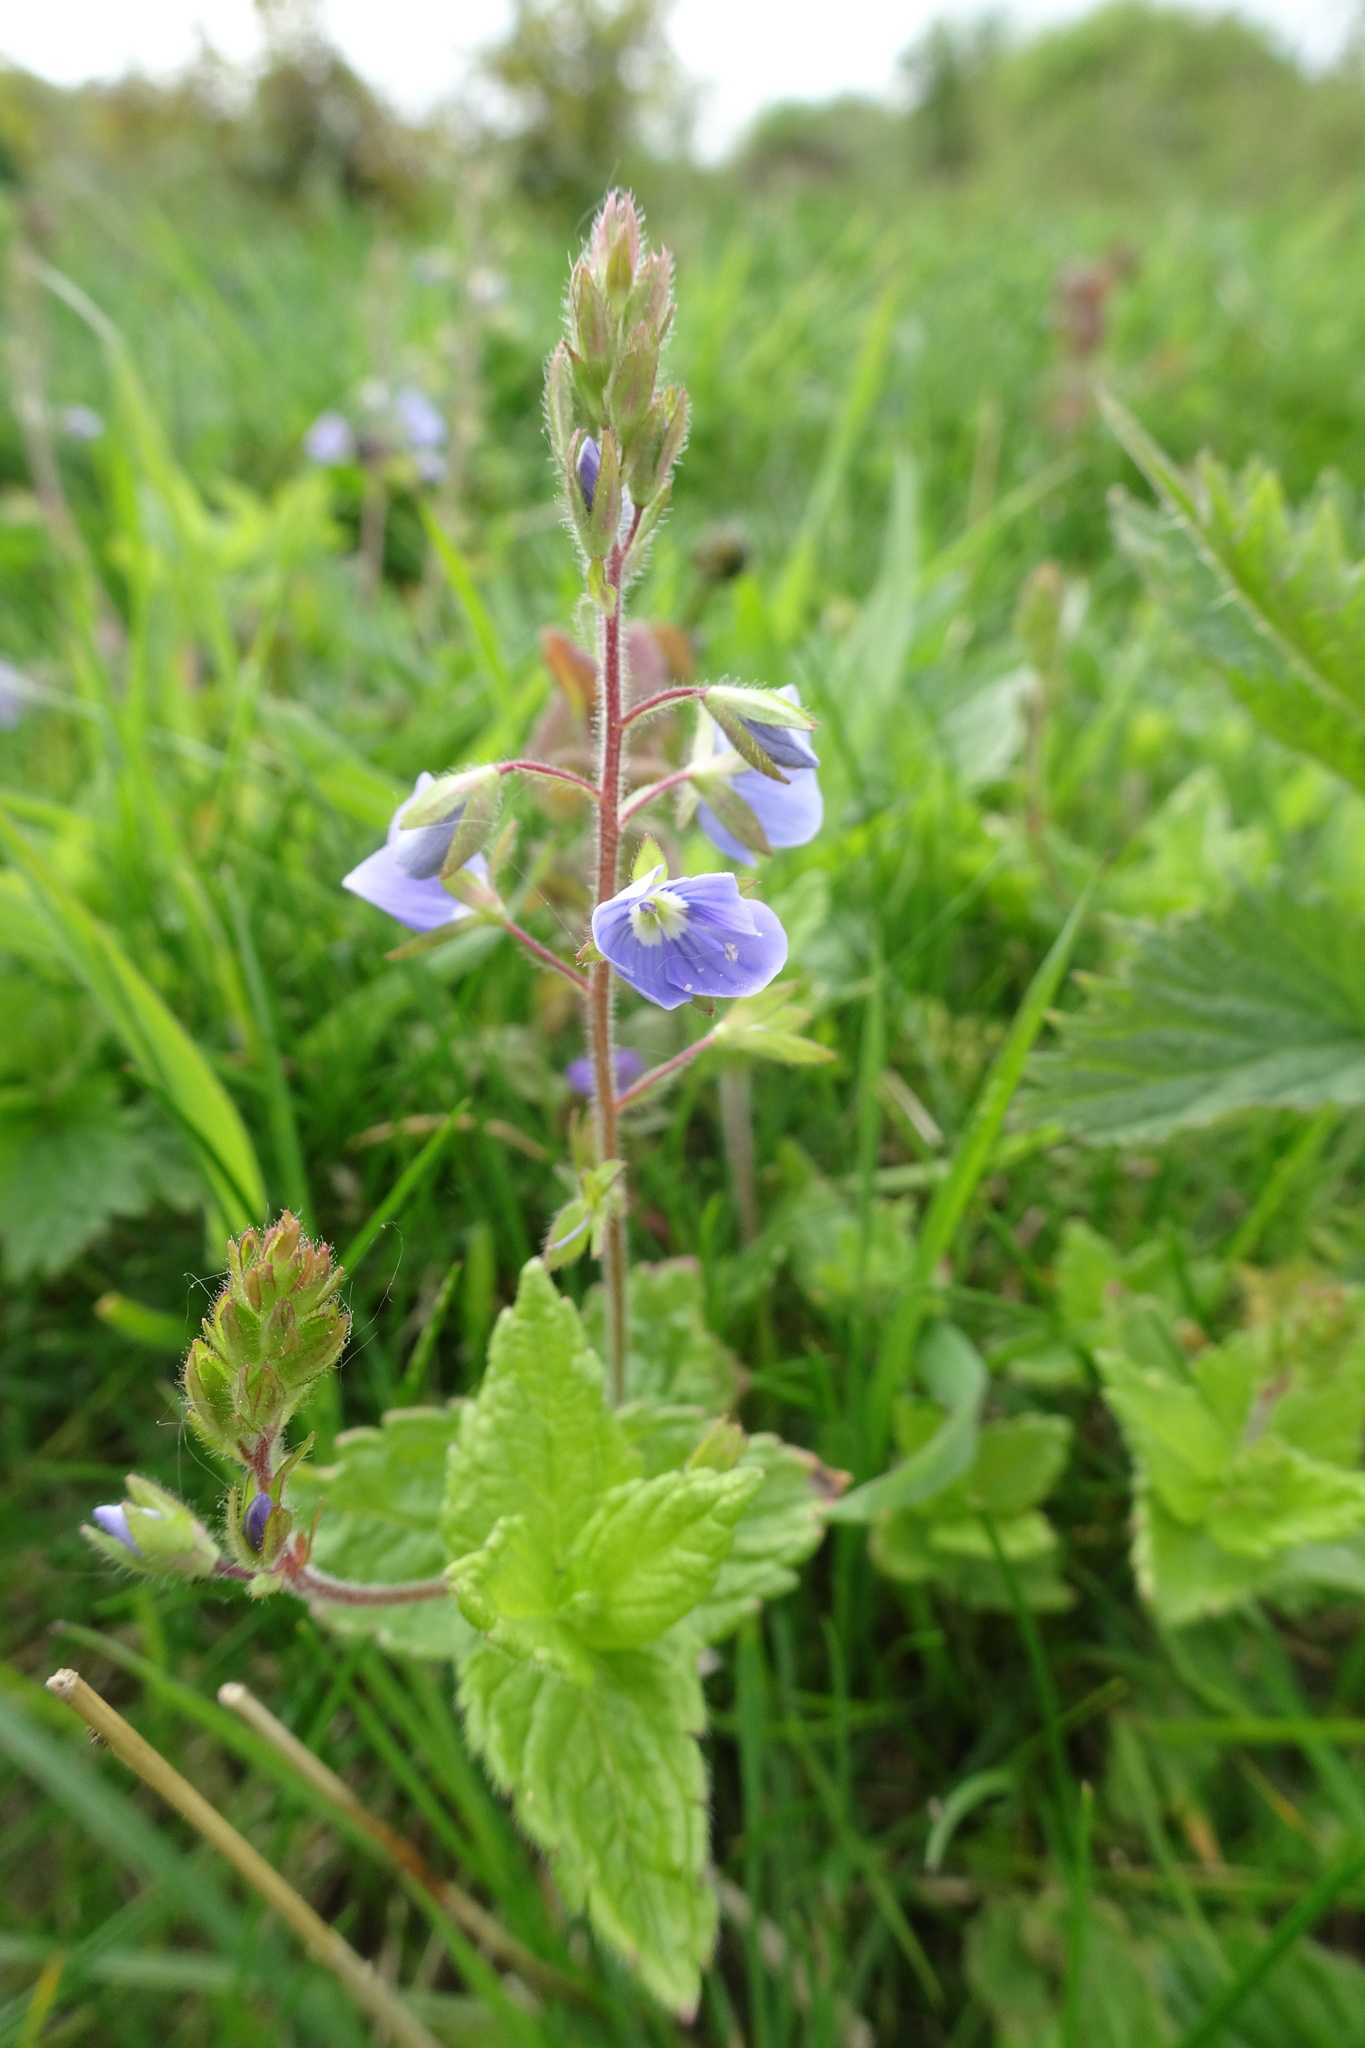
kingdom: Plantae
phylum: Tracheophyta
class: Magnoliopsida
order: Lamiales
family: Plantaginaceae
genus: Veronica
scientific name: Veronica chamaedrys
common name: Germander speedwell
